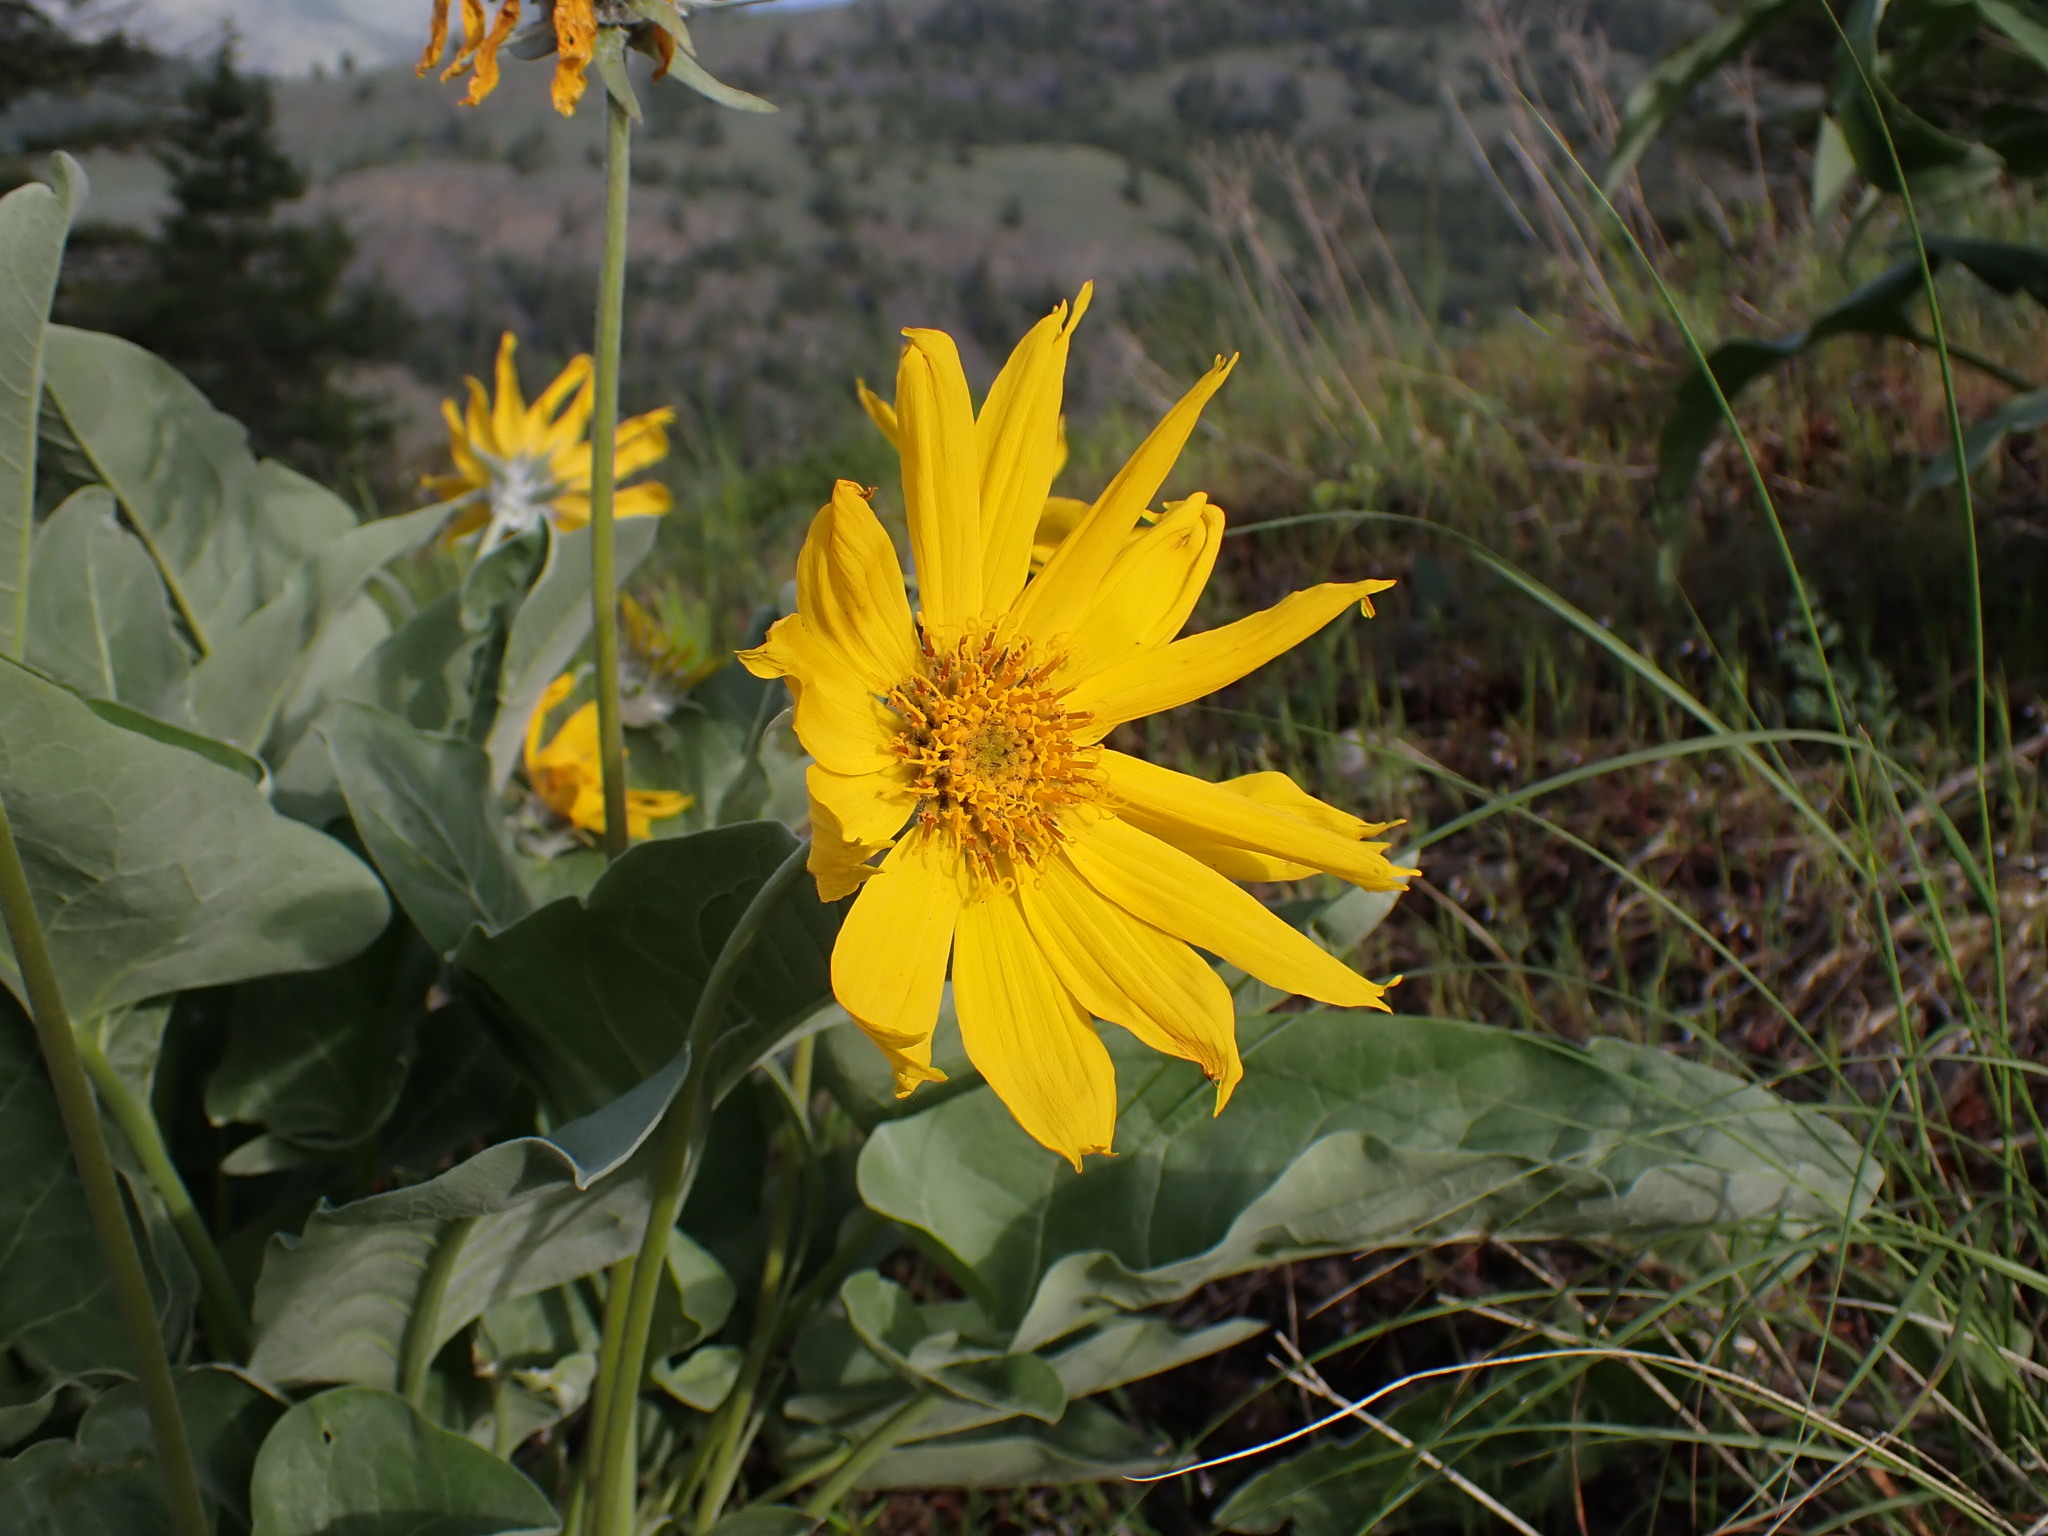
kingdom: Plantae
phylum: Tracheophyta
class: Magnoliopsida
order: Asterales
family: Asteraceae
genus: Wyethia
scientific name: Wyethia sagittata
